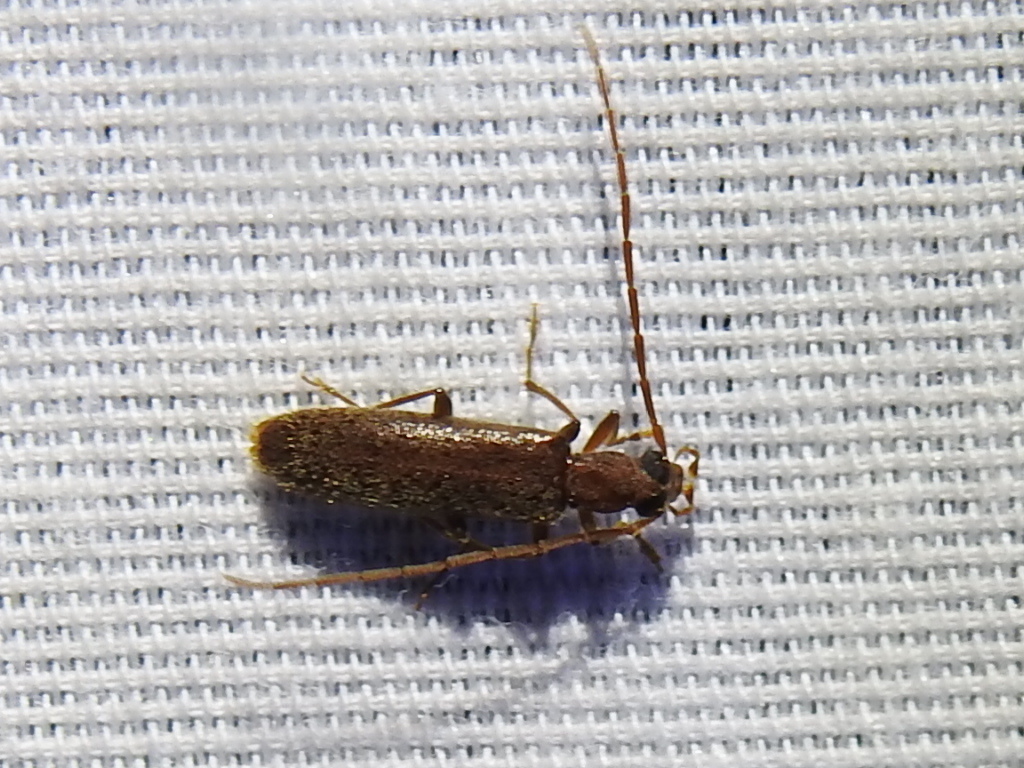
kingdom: Animalia
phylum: Arthropoda
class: Insecta
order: Coleoptera
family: Oedemeridae
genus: Sparedrus
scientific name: Sparedrus aspersus
